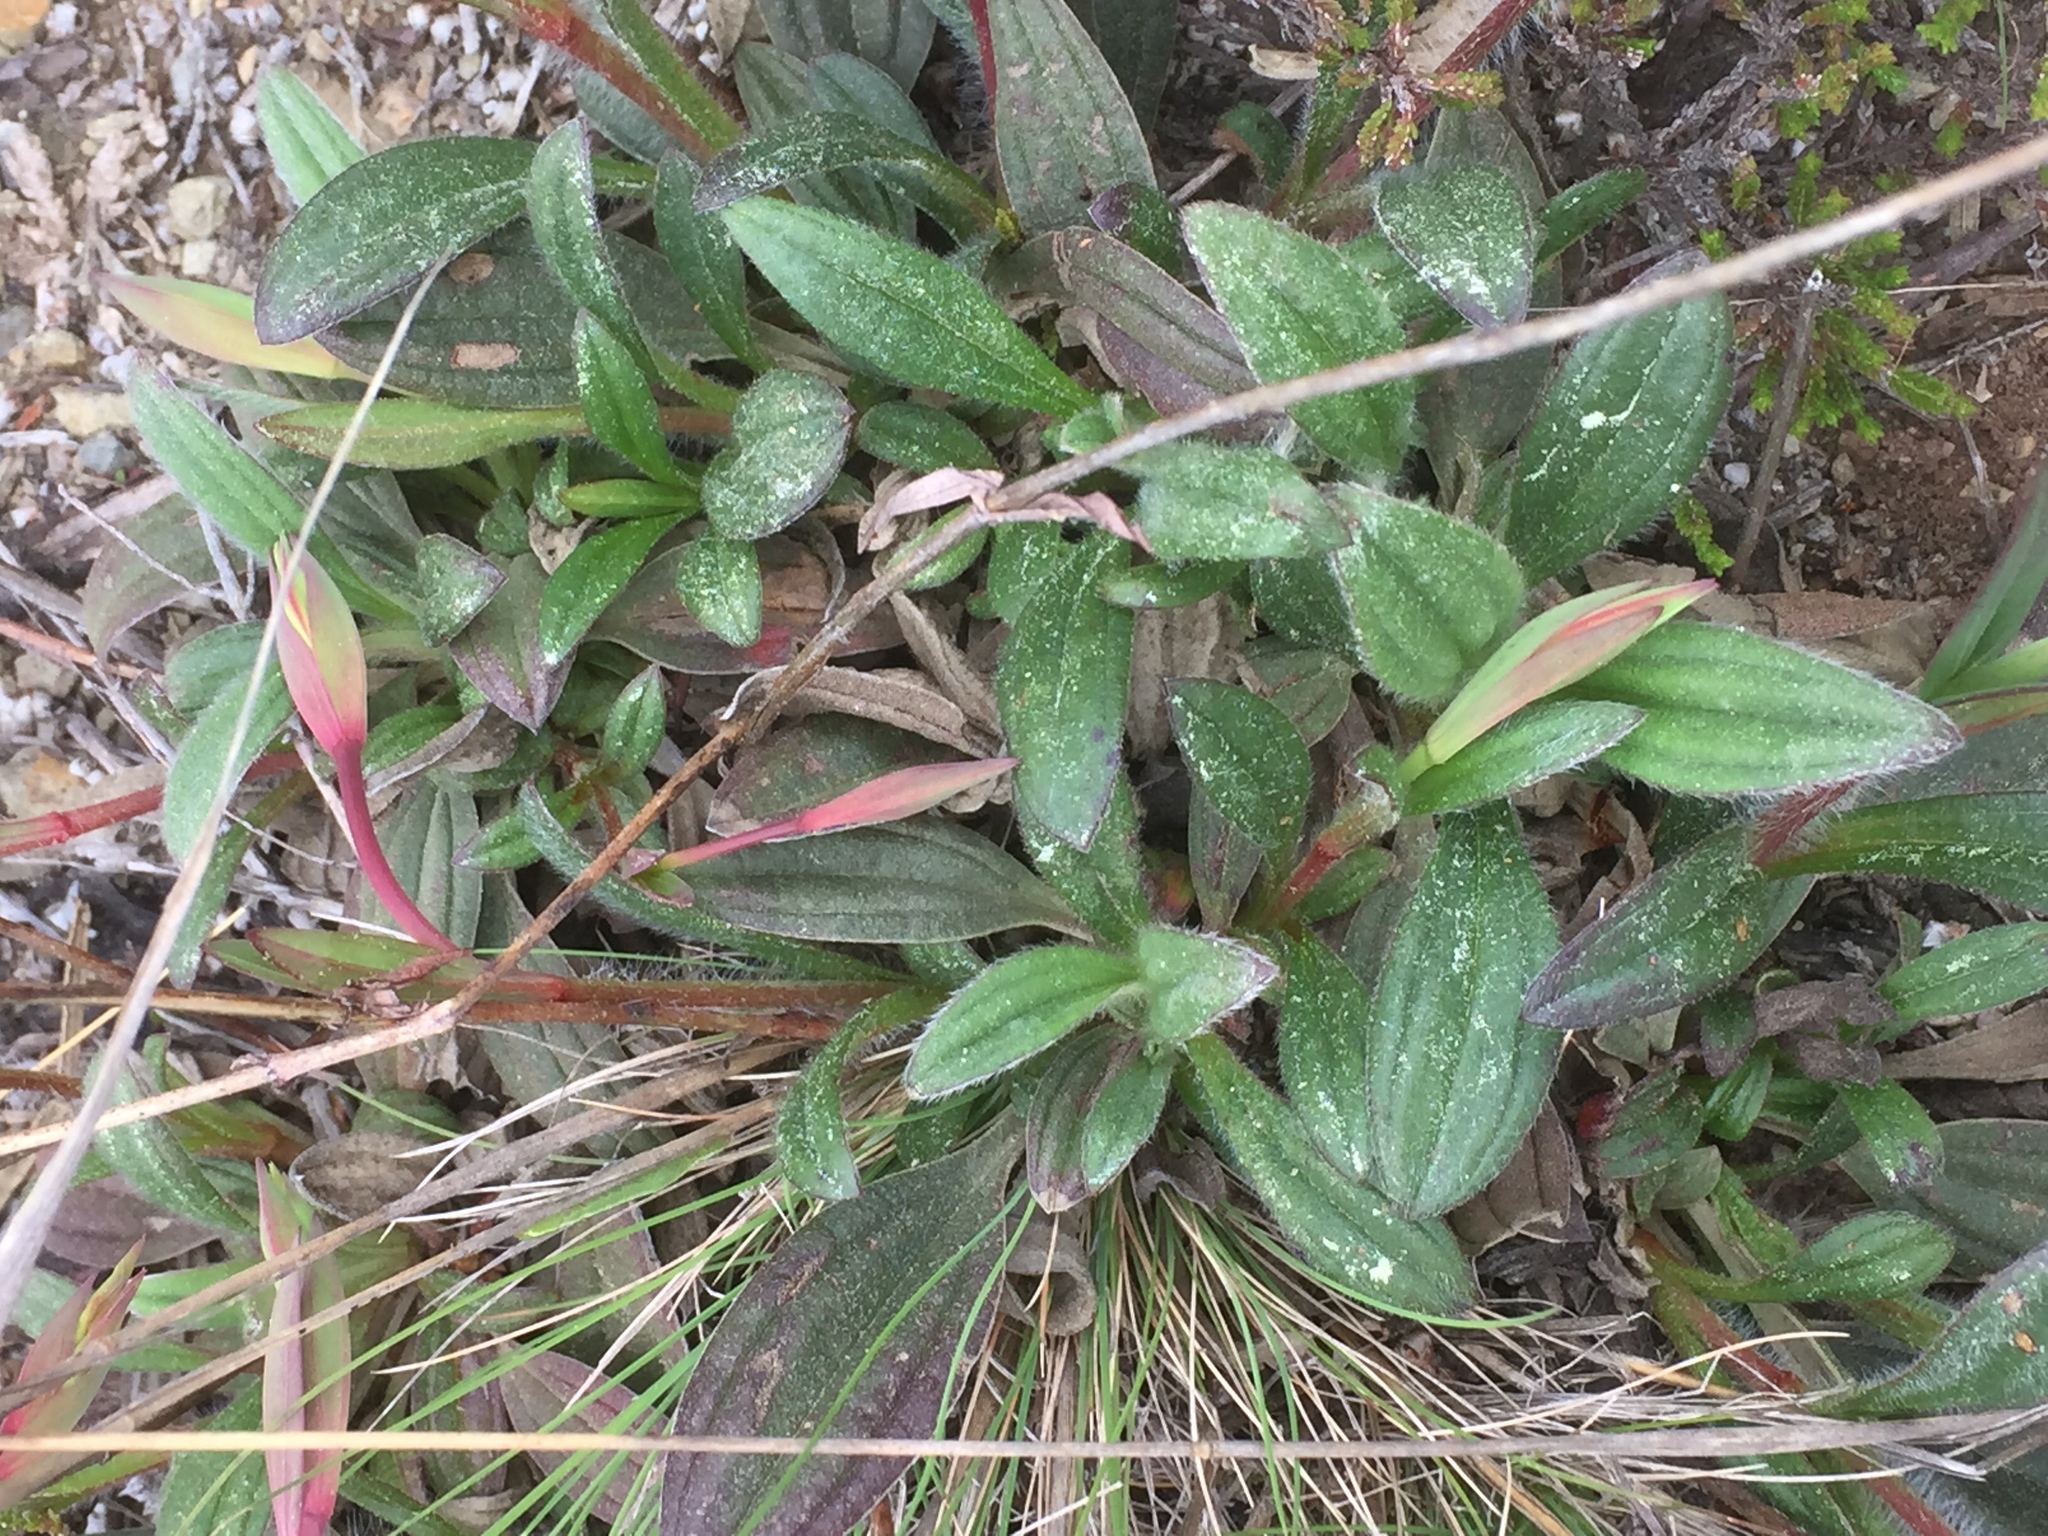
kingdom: Plantae
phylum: Tracheophyta
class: Magnoliopsida
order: Malvales
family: Cistaceae
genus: Tuberaria
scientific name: Tuberaria lignosa
